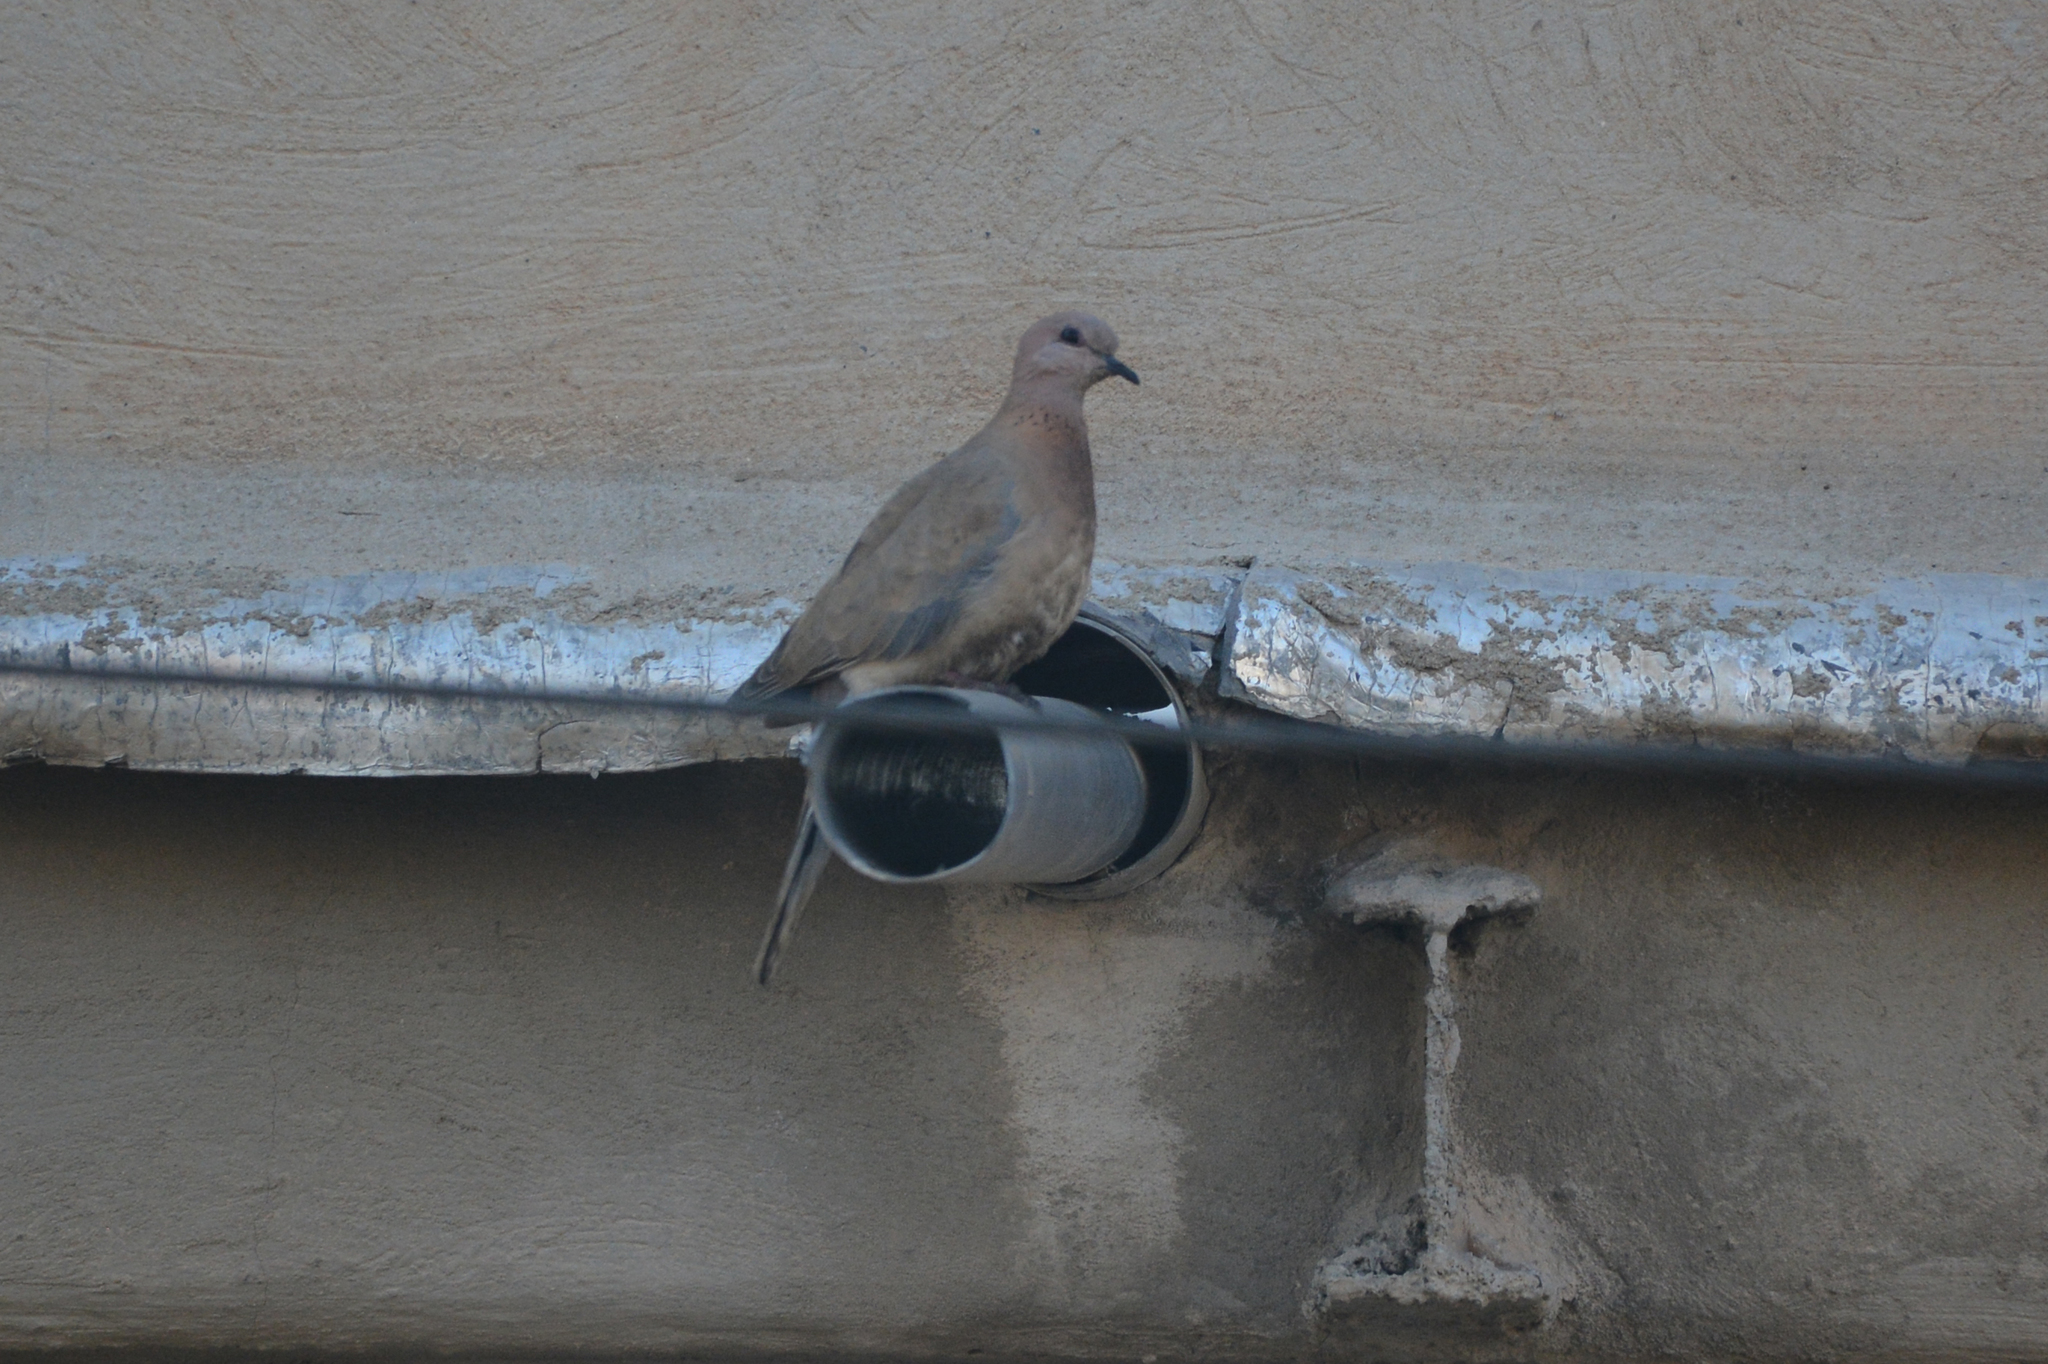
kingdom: Animalia
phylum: Chordata
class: Aves
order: Columbiformes
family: Columbidae
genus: Spilopelia
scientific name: Spilopelia senegalensis
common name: Laughing dove
